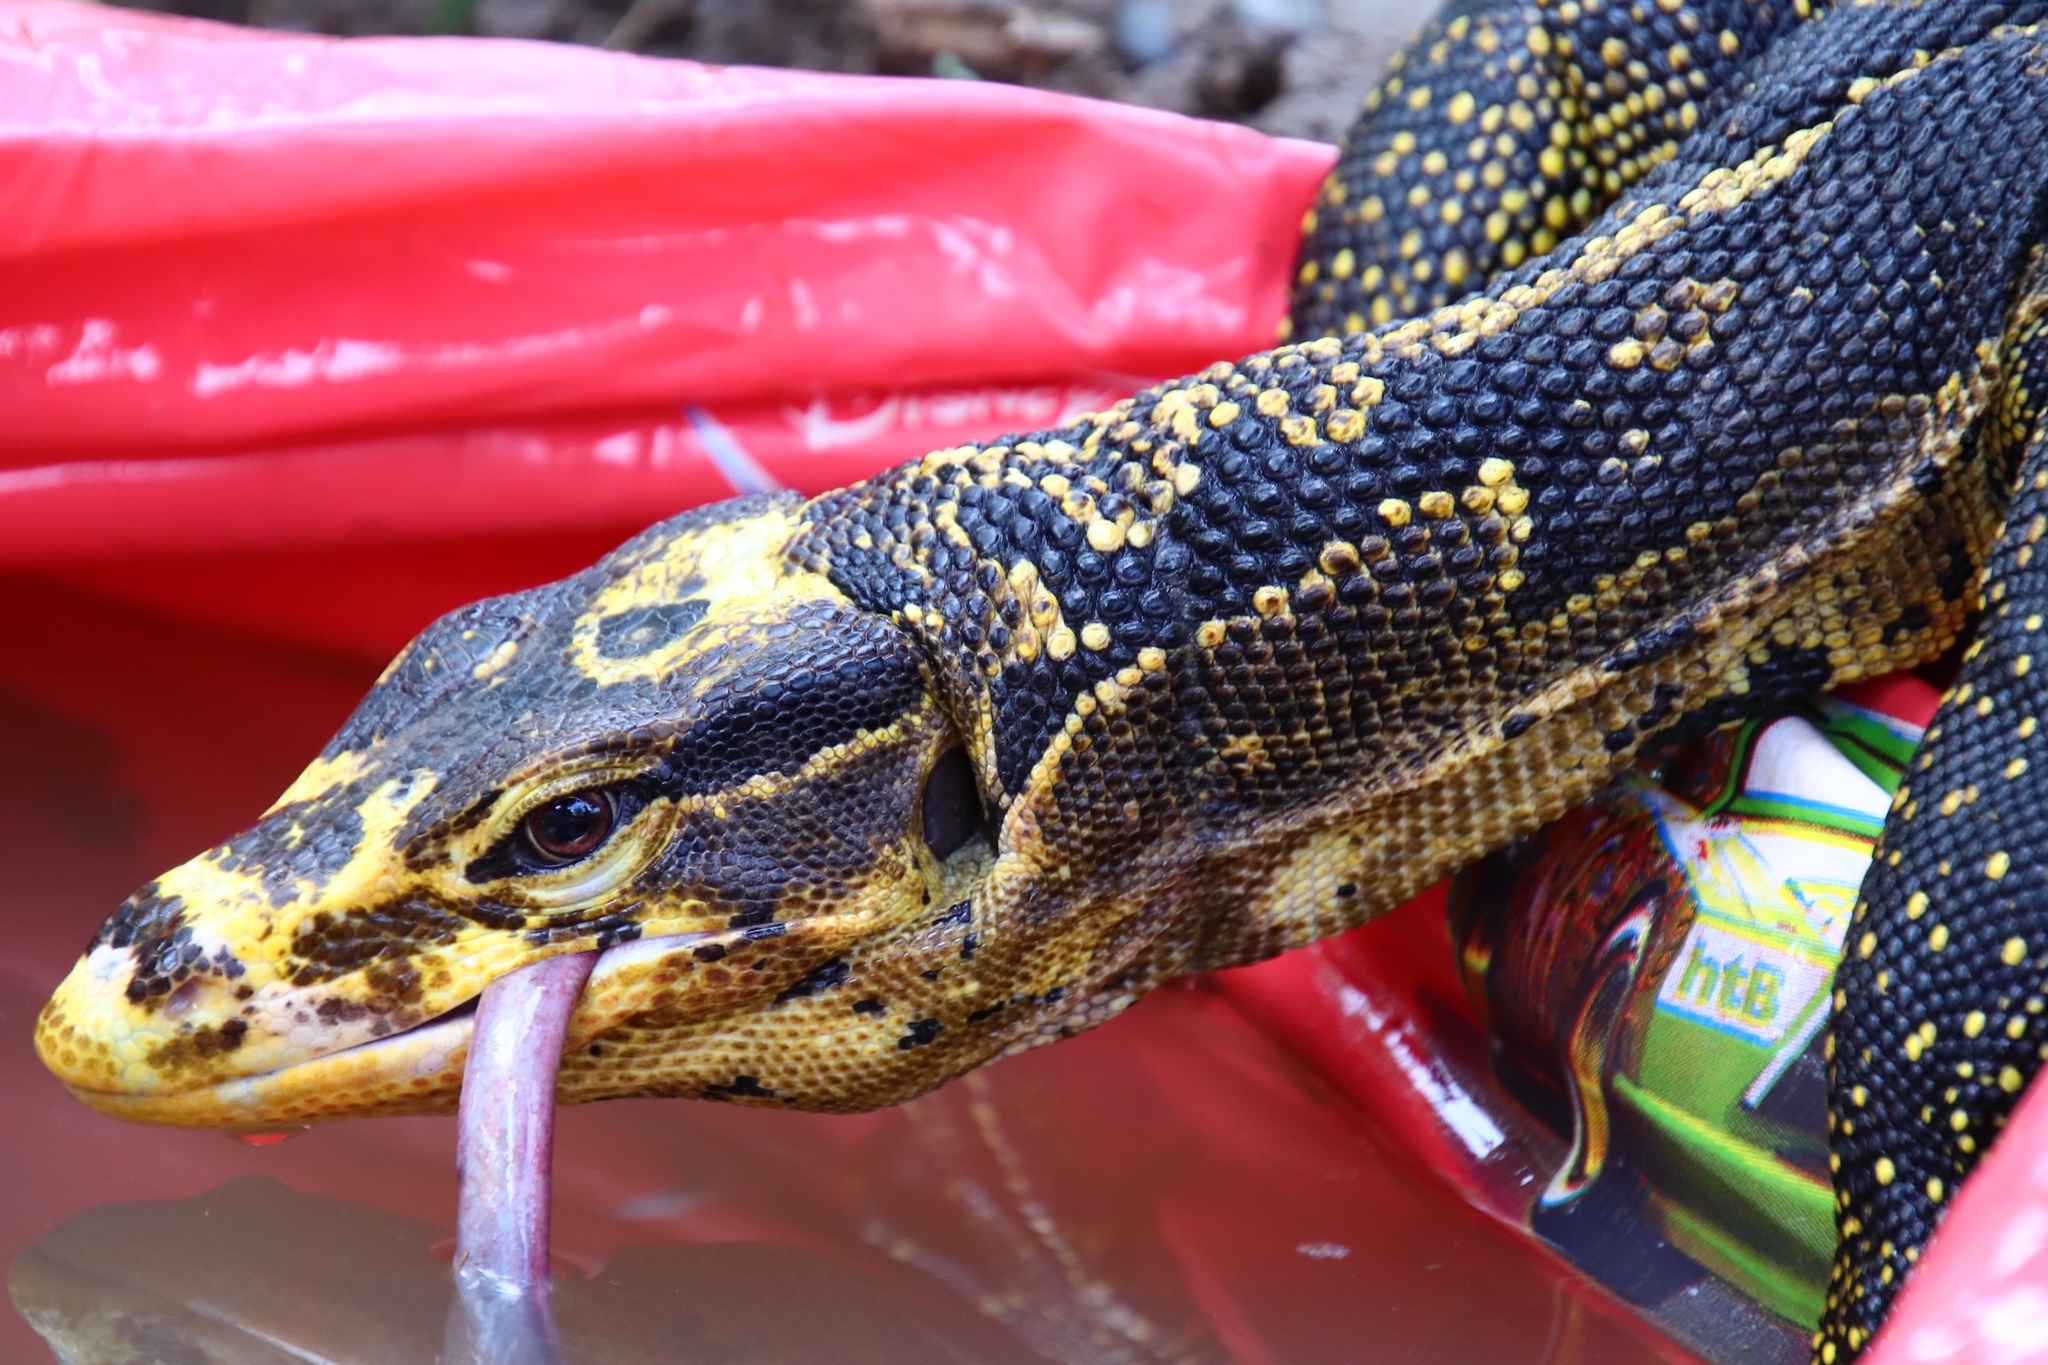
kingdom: Animalia
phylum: Chordata
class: Squamata
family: Varanidae
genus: Varanus
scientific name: Varanus cumingi
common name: Cuming's water monitor
